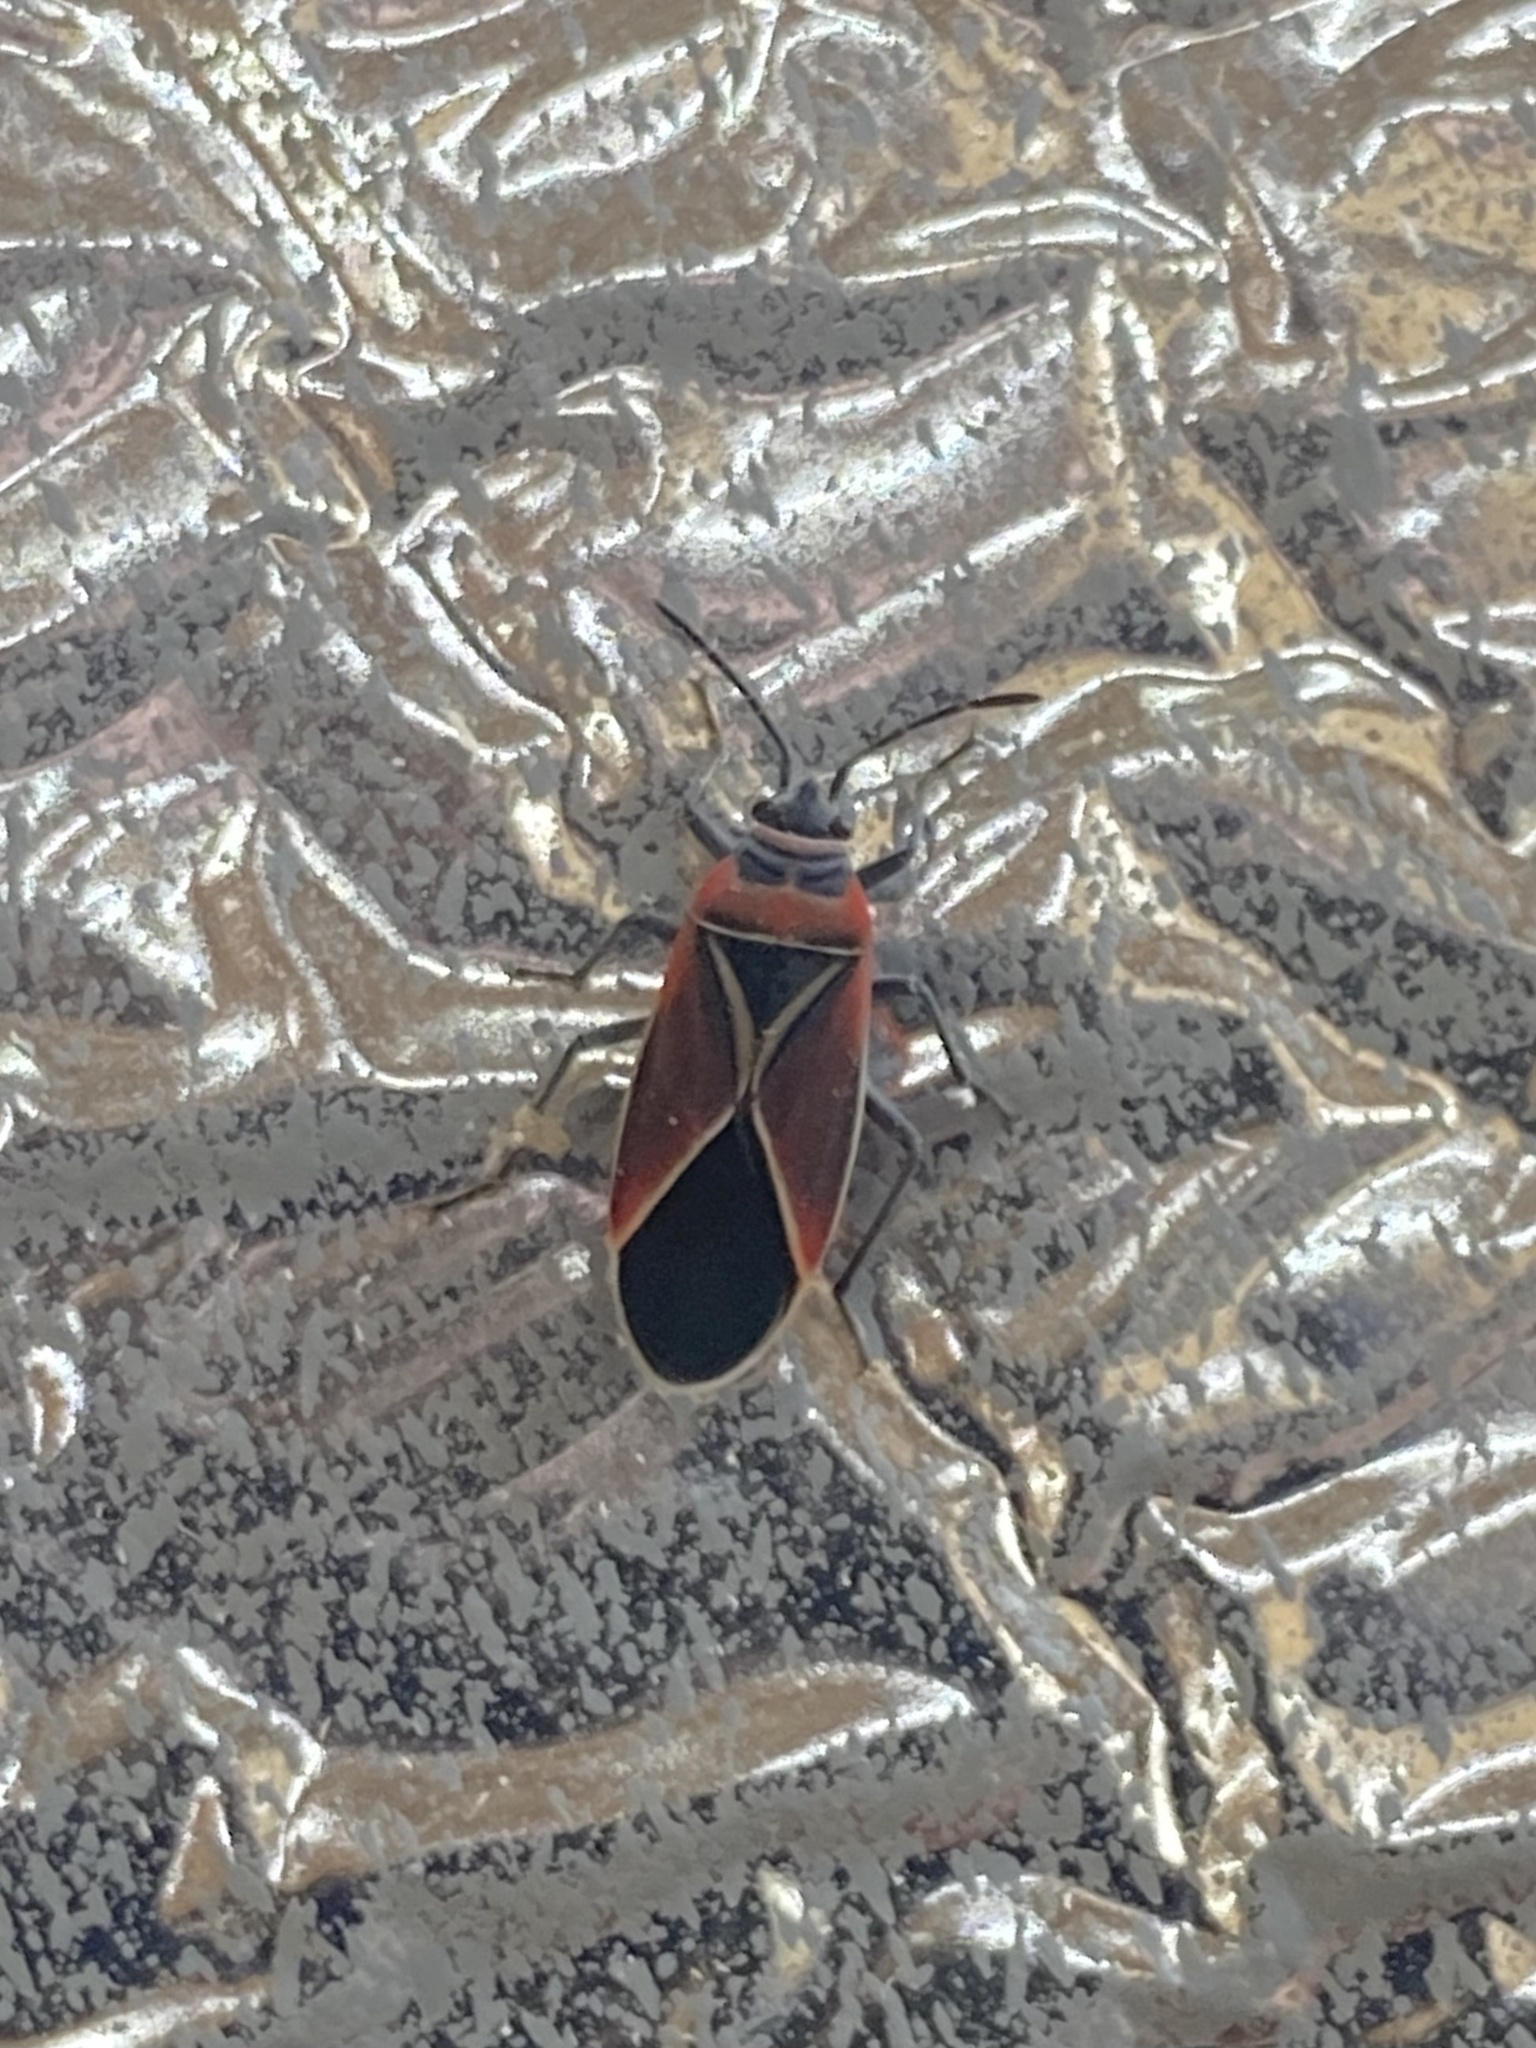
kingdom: Animalia
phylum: Arthropoda
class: Insecta
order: Hemiptera
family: Lygaeidae
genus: Neacoryphus
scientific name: Neacoryphus bicrucis
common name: Lygaeid bug
